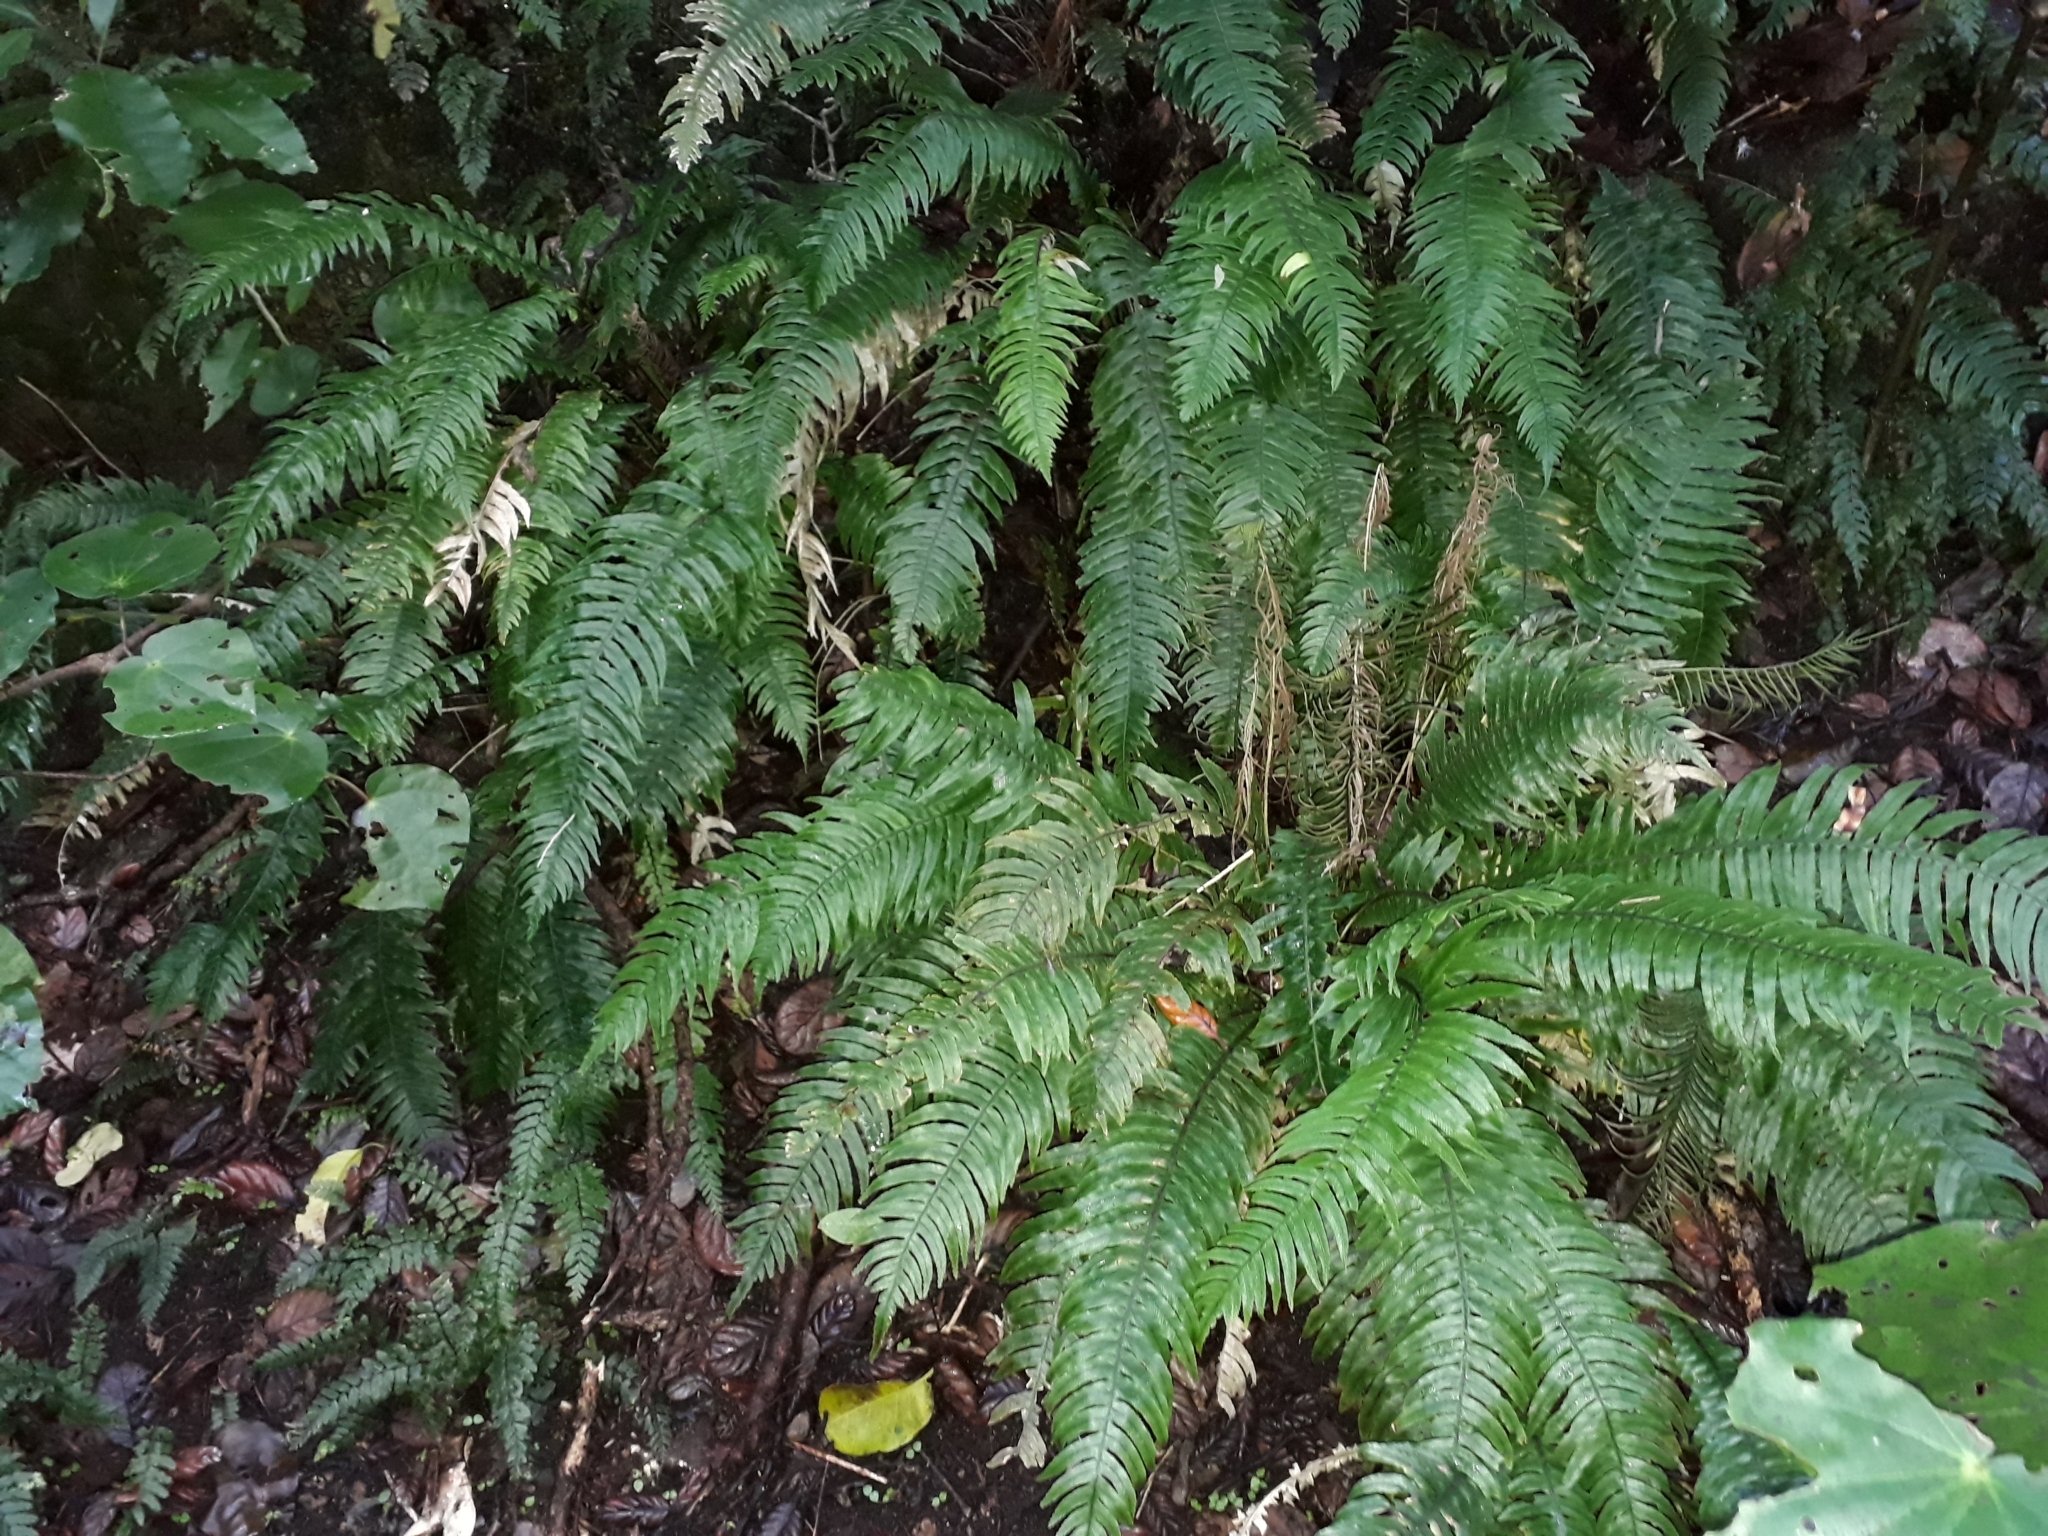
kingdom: Plantae
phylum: Tracheophyta
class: Polypodiopsida
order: Polypodiales
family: Blechnaceae
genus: Austroblechnum
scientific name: Austroblechnum norfolkianum
